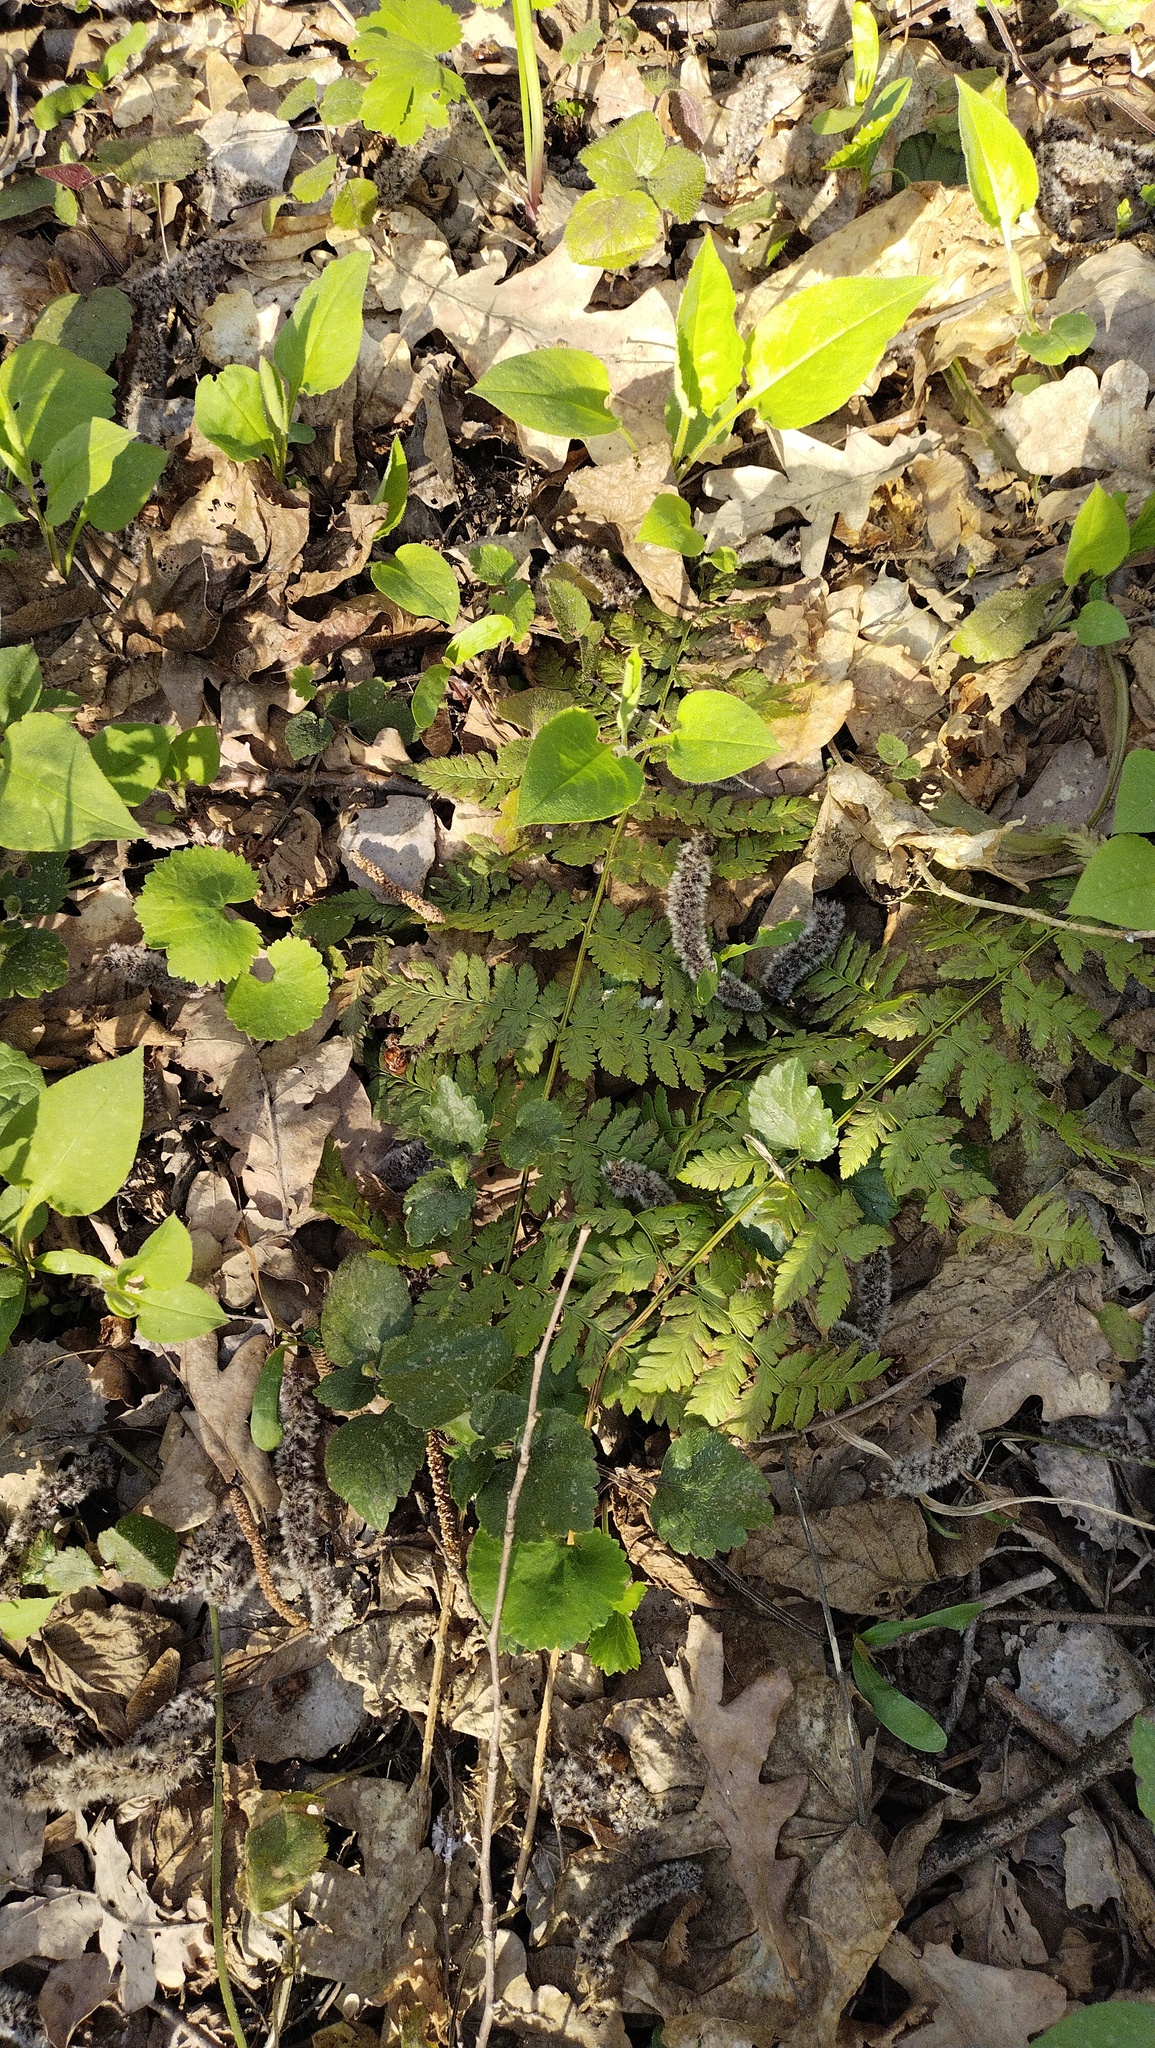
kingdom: Plantae
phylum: Tracheophyta
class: Polypodiopsida
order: Polypodiales
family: Dryopteridaceae
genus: Dryopteris
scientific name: Dryopteris carthusiana
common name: Narrow buckler-fern
